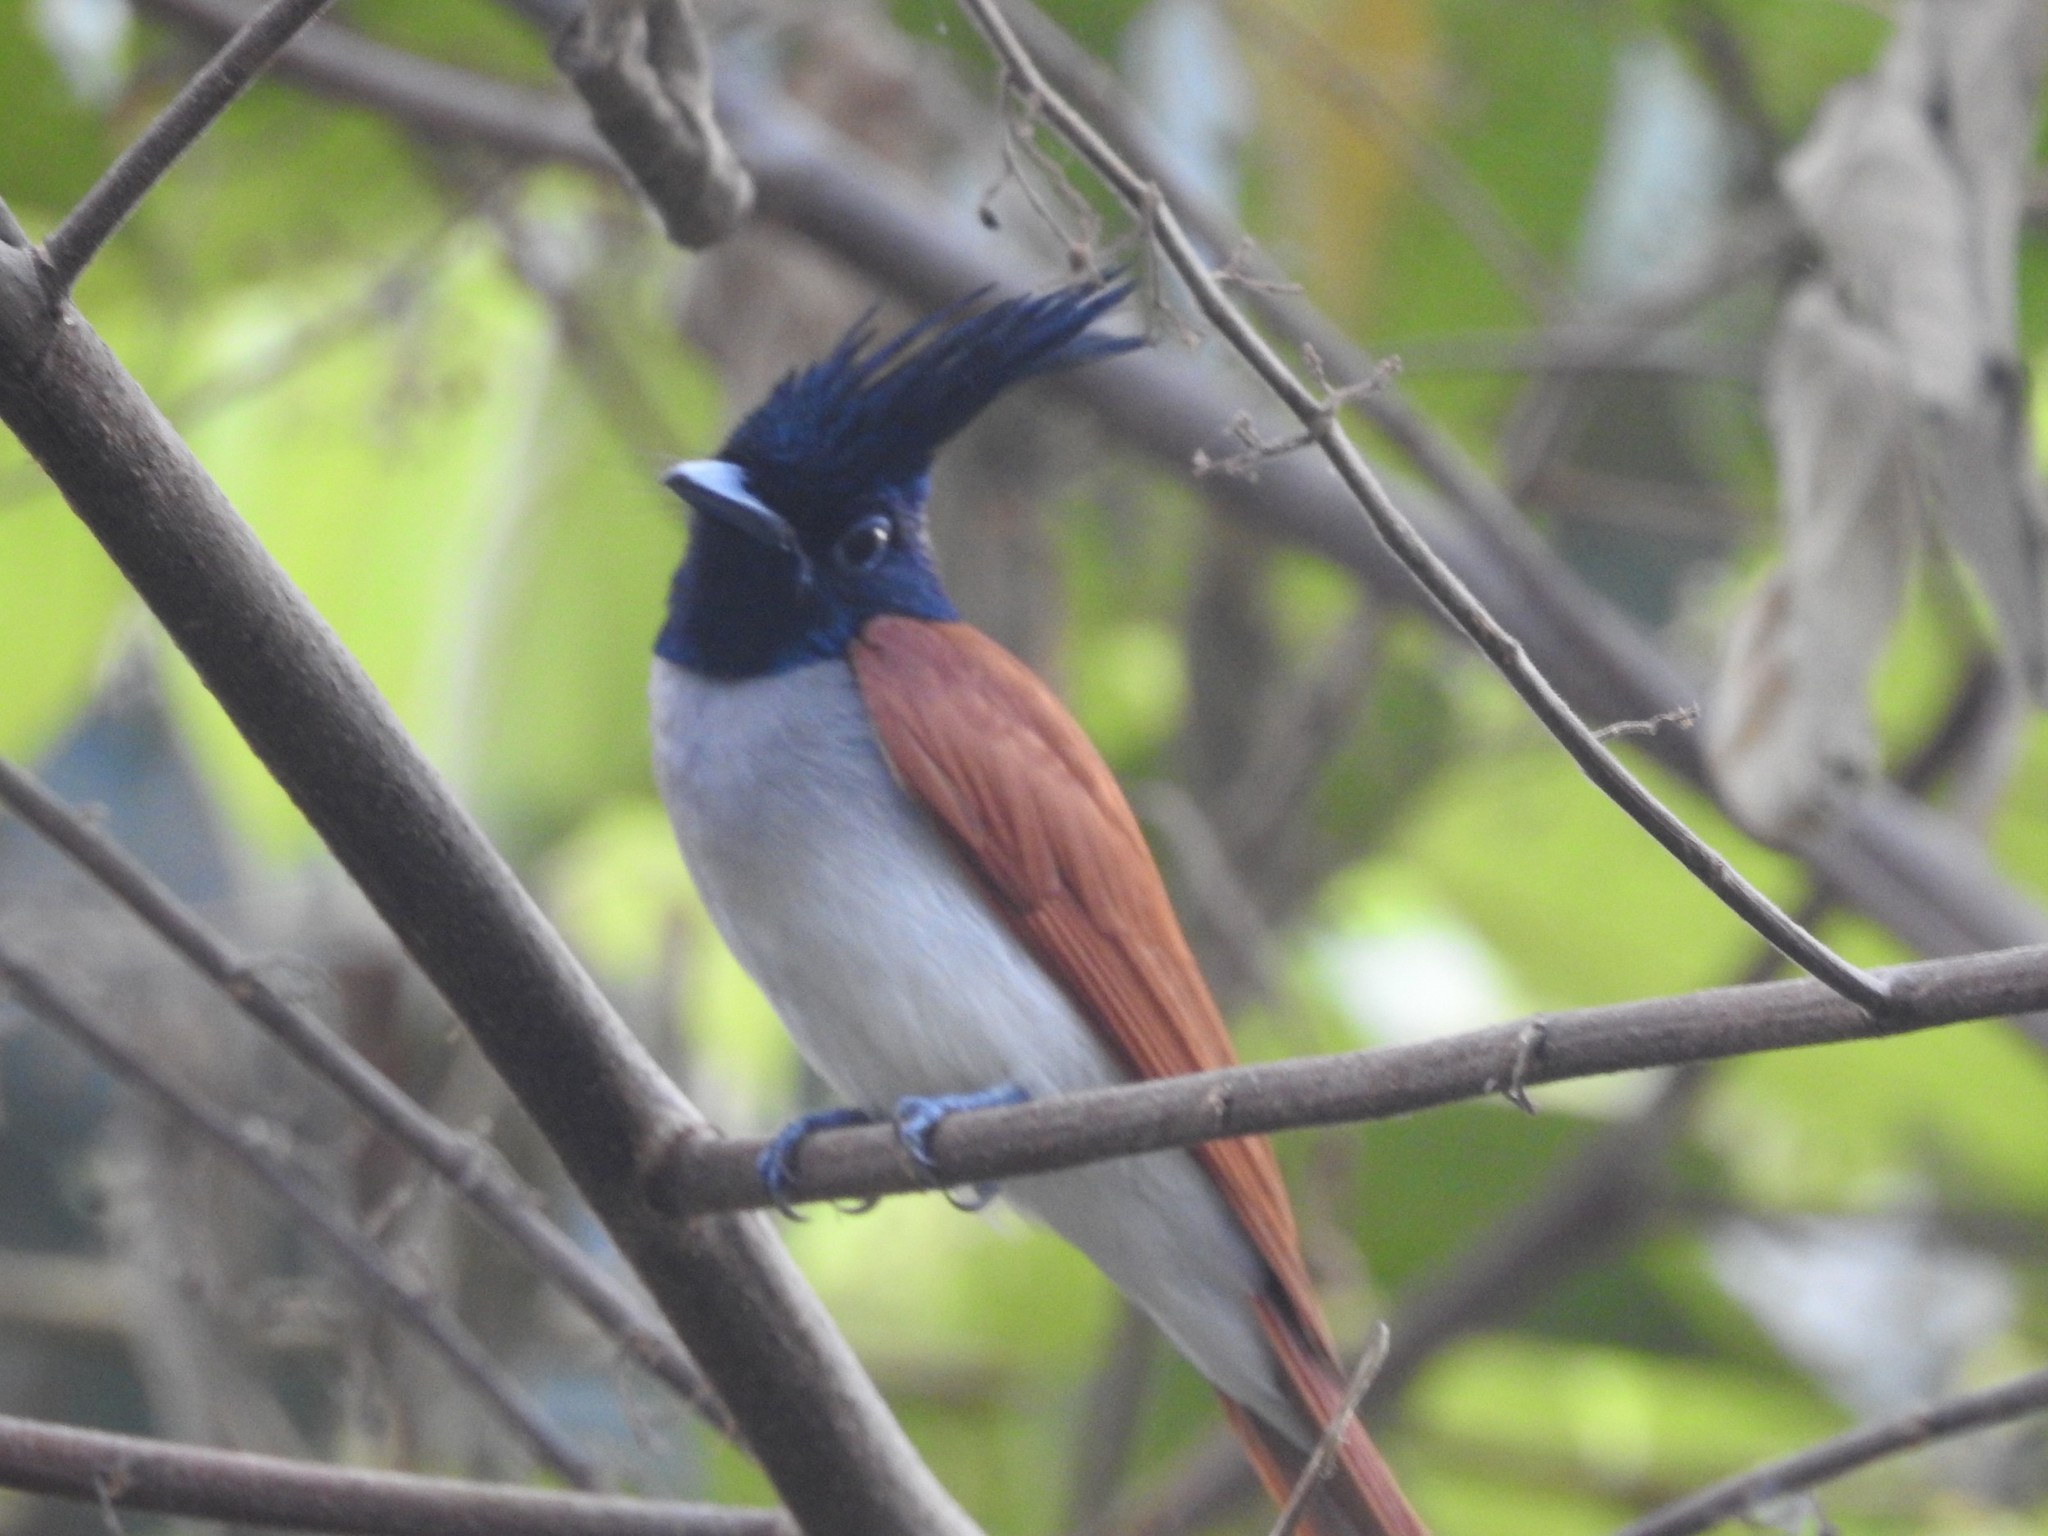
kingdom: Animalia
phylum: Chordata
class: Aves
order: Passeriformes
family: Monarchidae
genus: Terpsiphone
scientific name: Terpsiphone paradisi
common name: Indian paradise flycatcher
